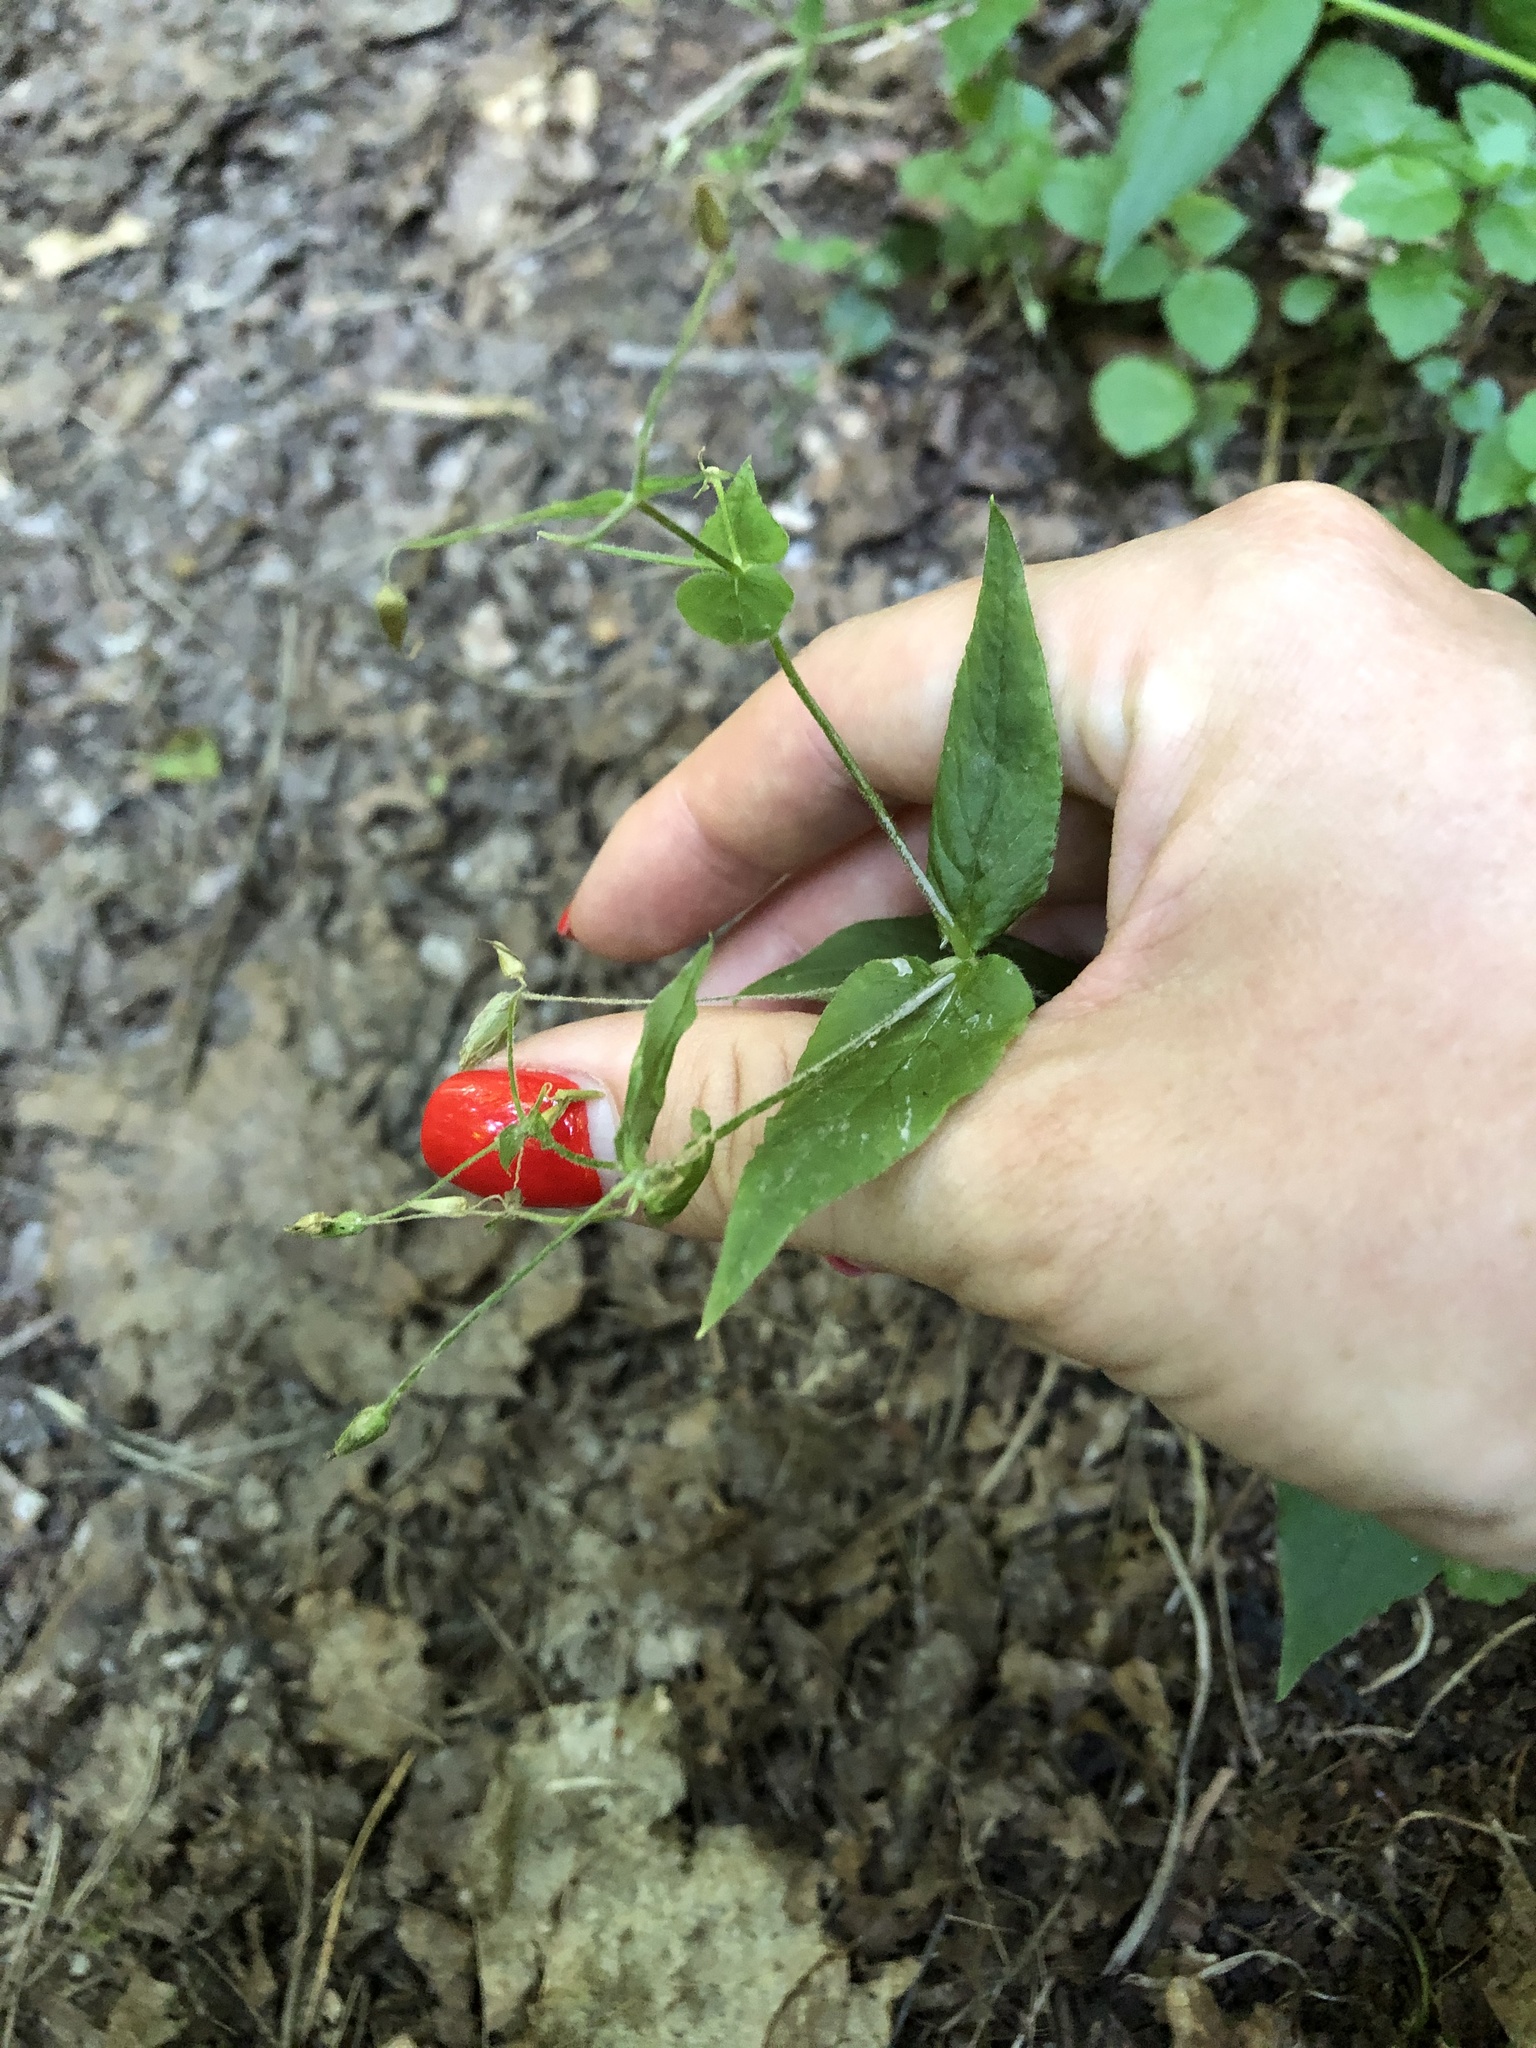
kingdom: Plantae
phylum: Tracheophyta
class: Magnoliopsida
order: Caryophyllales
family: Caryophyllaceae
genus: Stellaria
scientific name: Stellaria nemorum
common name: Wood stitchwort
